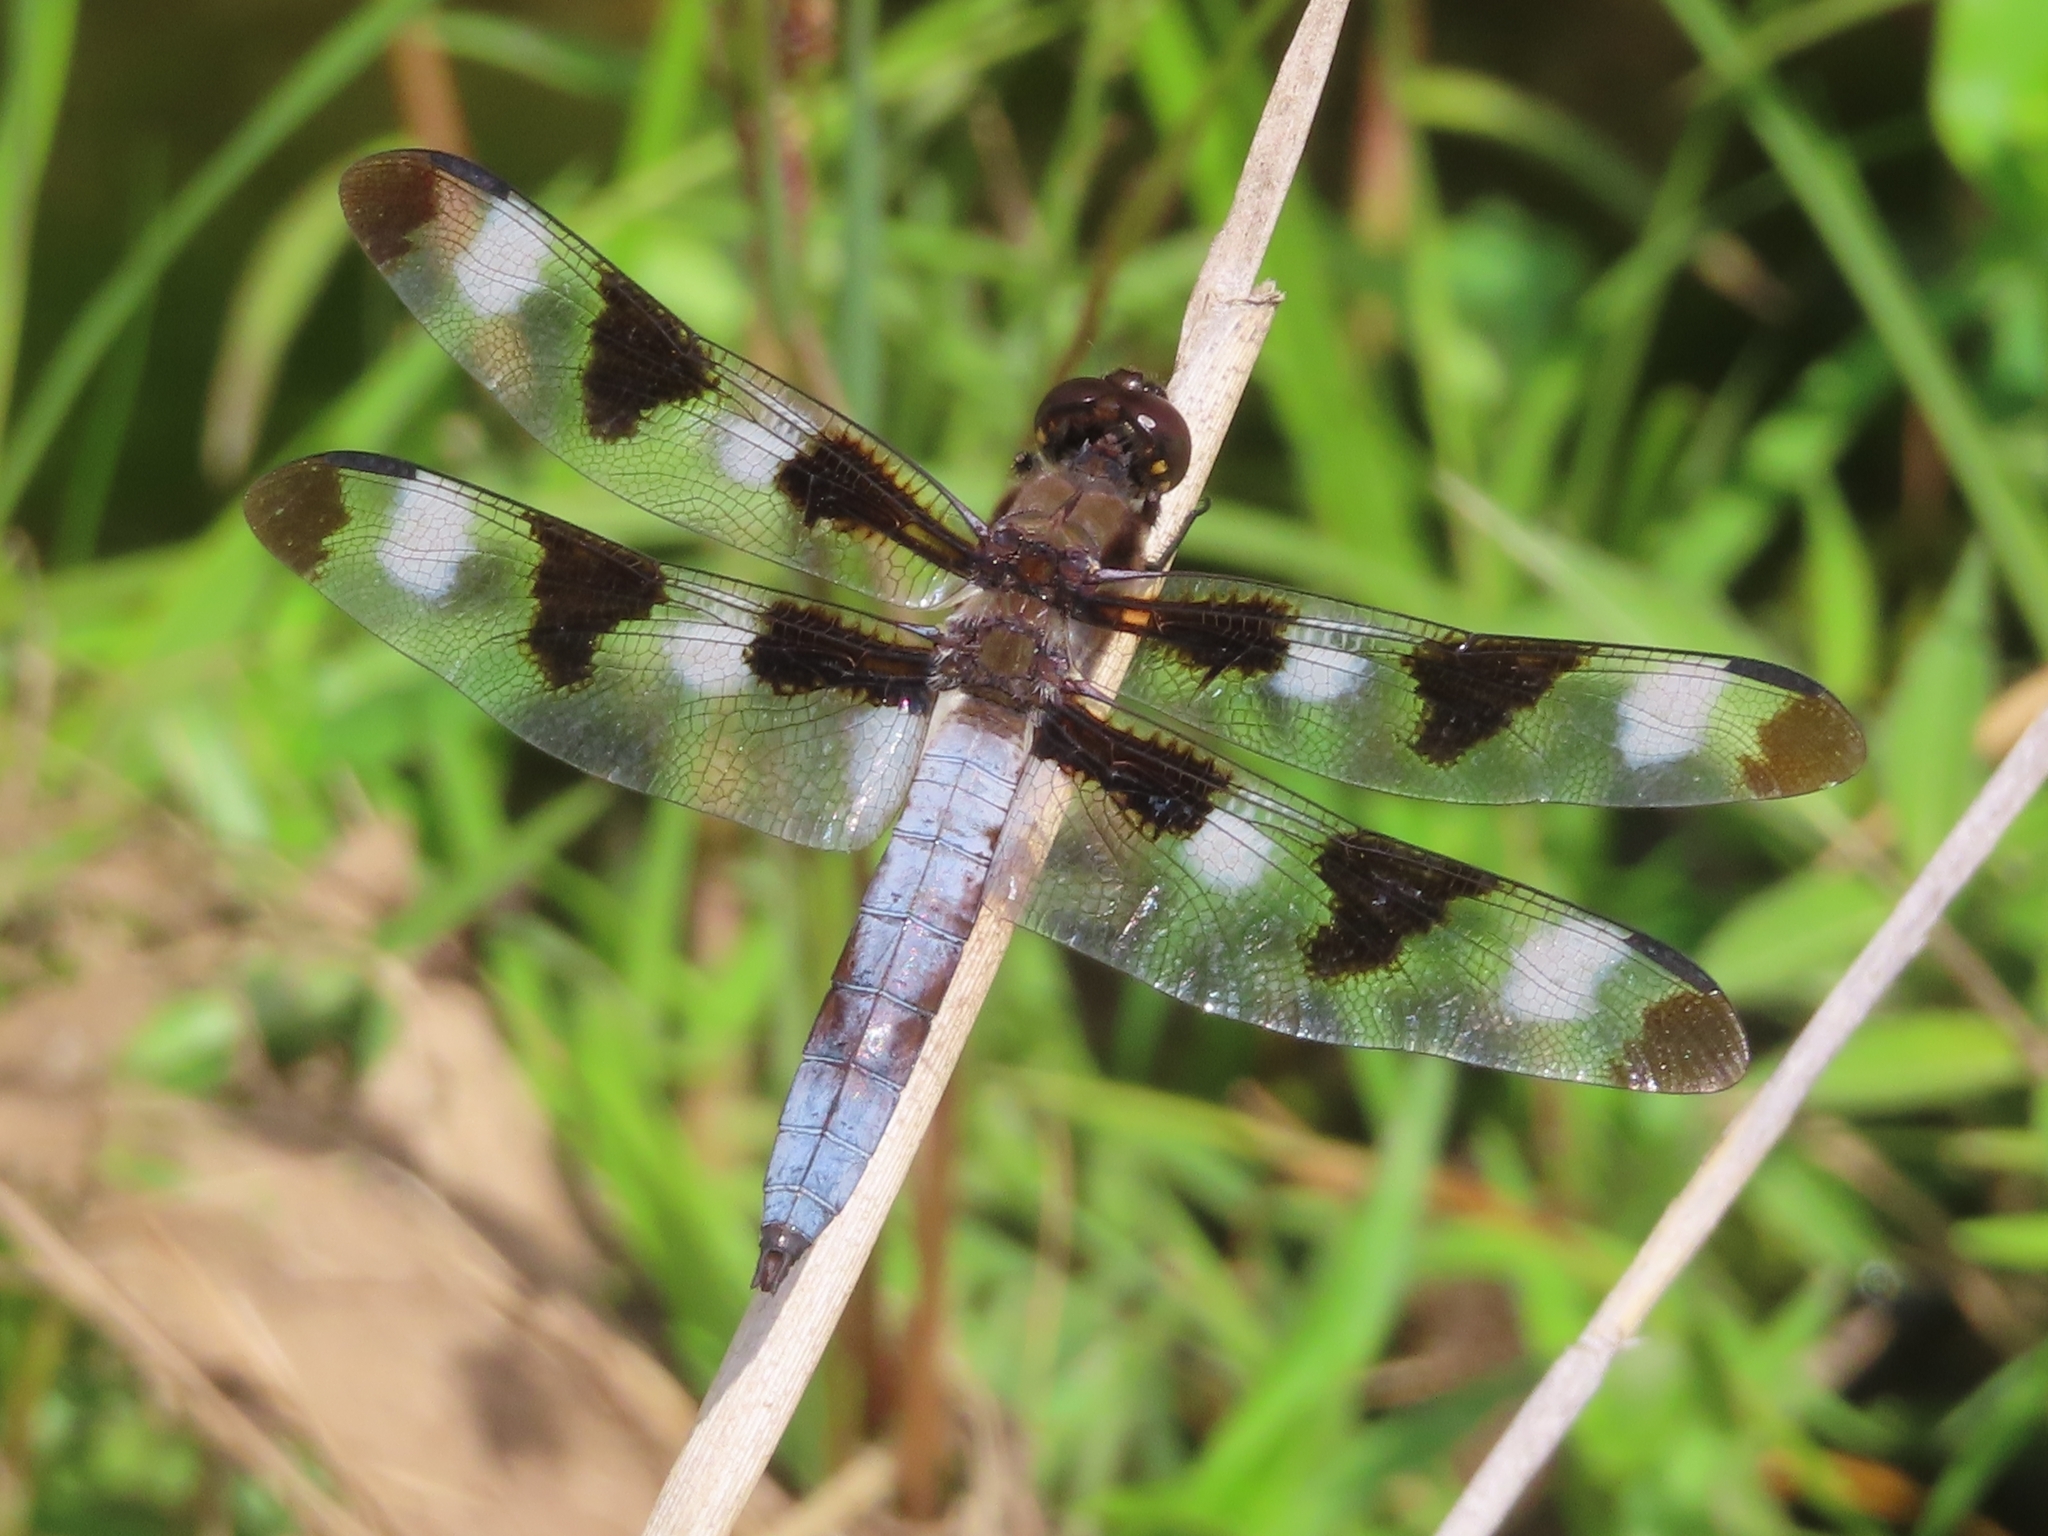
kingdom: Animalia
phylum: Arthropoda
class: Insecta
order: Odonata
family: Libellulidae
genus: Libellula
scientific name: Libellula pulchella
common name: Twelve-spotted skimmer
